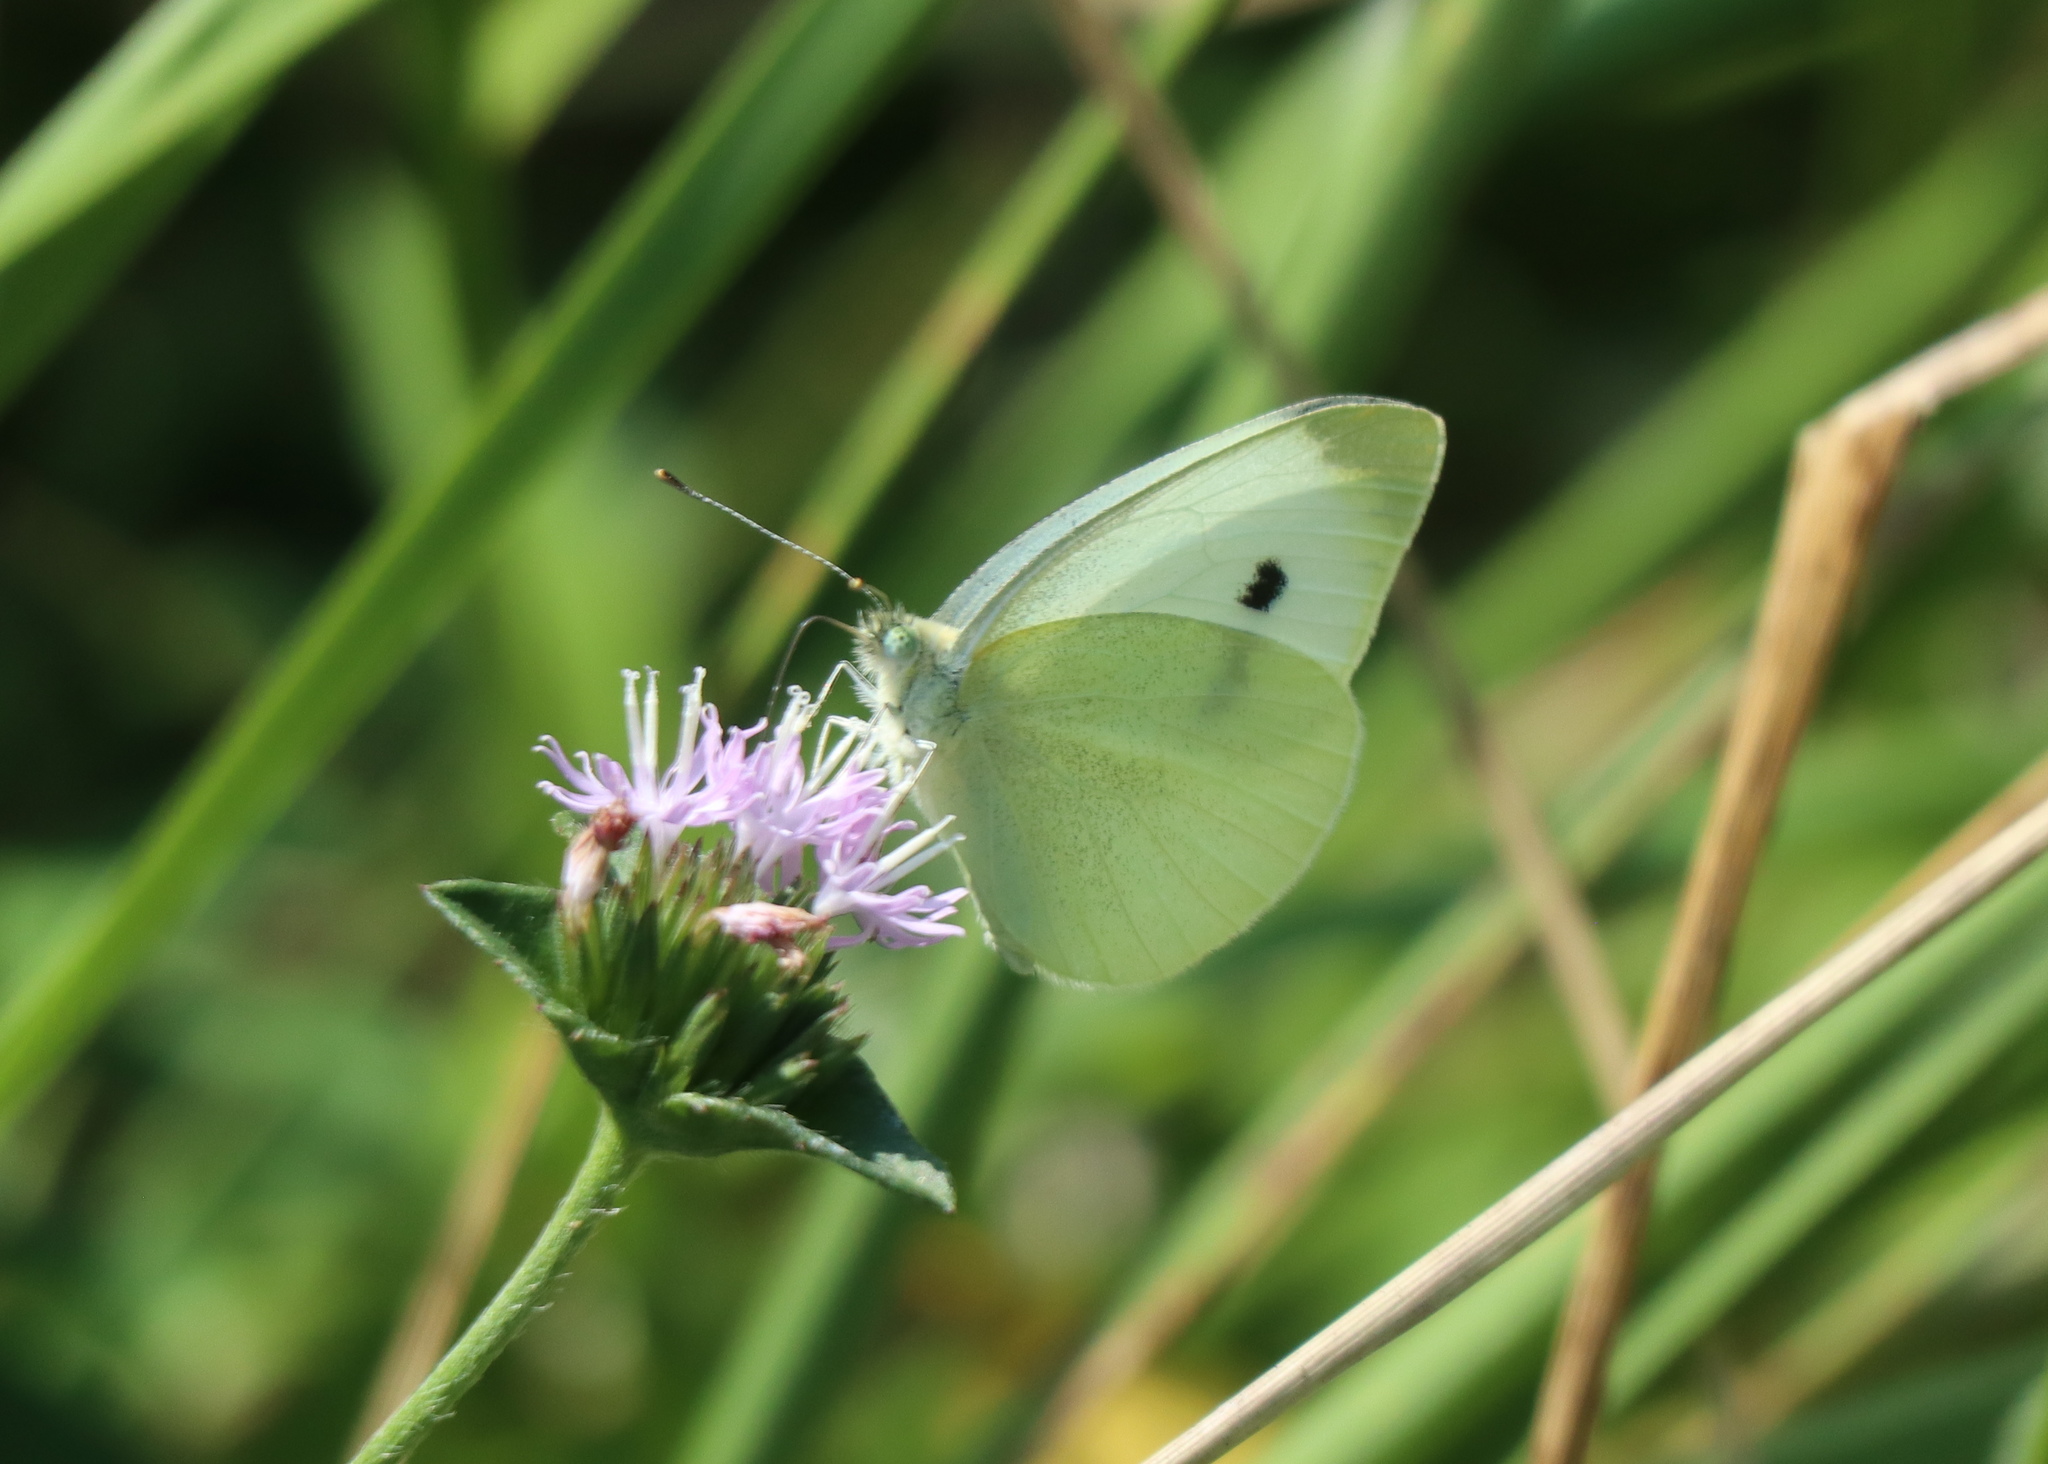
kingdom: Animalia
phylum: Arthropoda
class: Insecta
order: Lepidoptera
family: Pieridae
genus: Pieris
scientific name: Pieris rapae
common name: Small white
